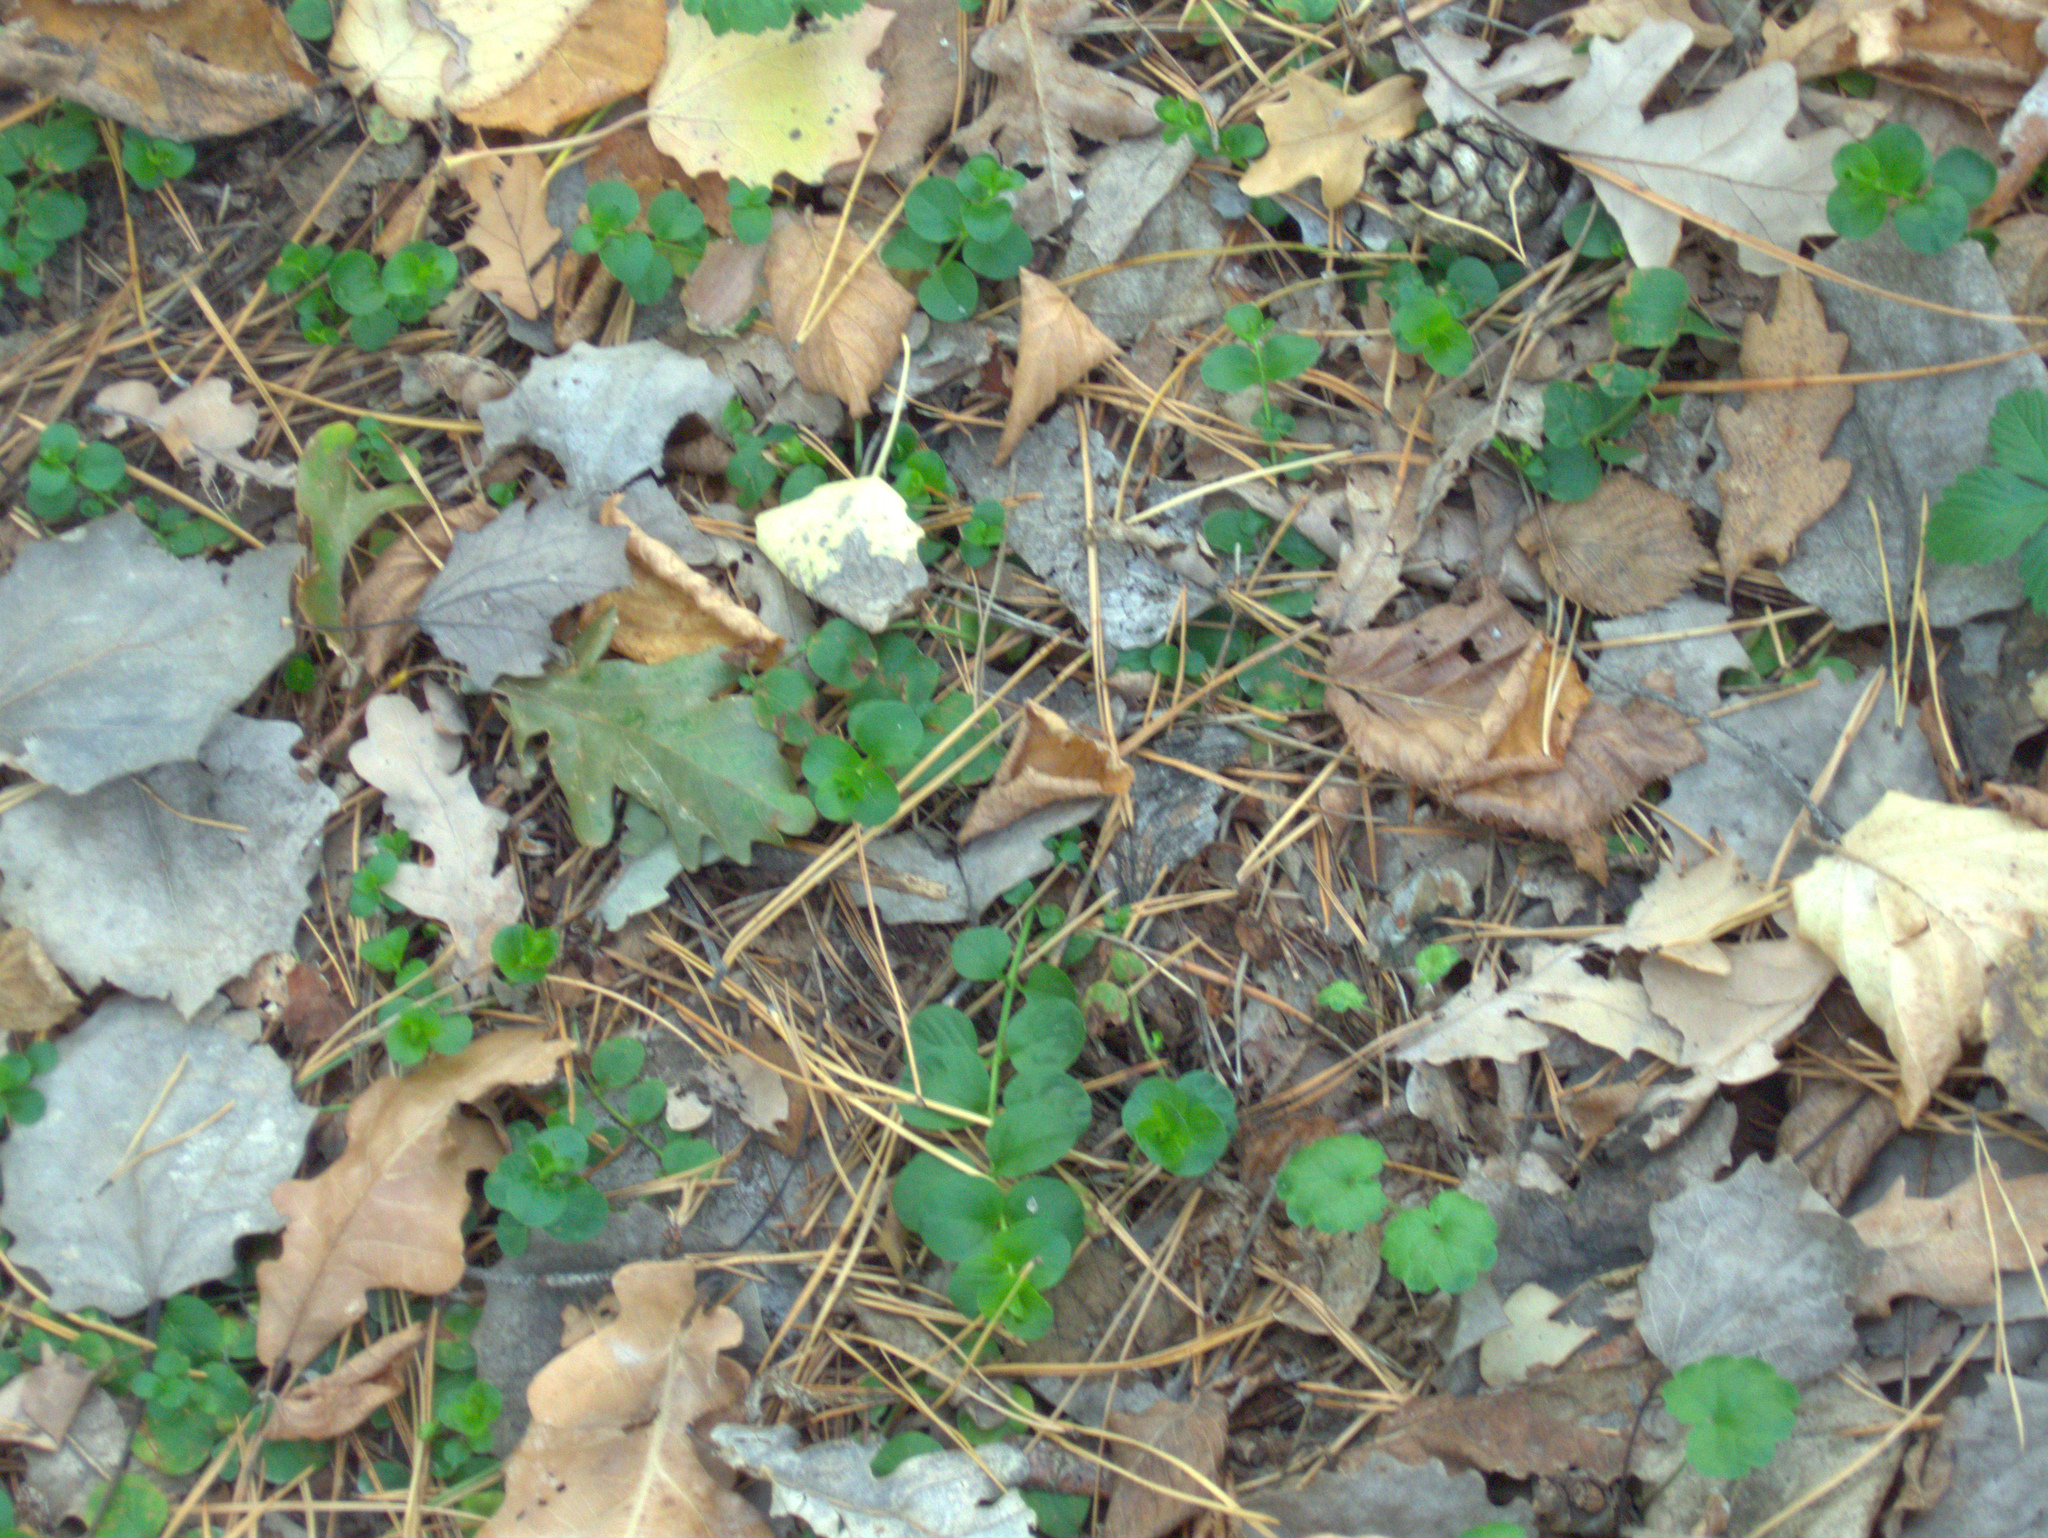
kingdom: Plantae
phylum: Tracheophyta
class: Magnoliopsida
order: Ericales
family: Primulaceae
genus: Lysimachia
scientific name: Lysimachia nummularia
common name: Moneywort
